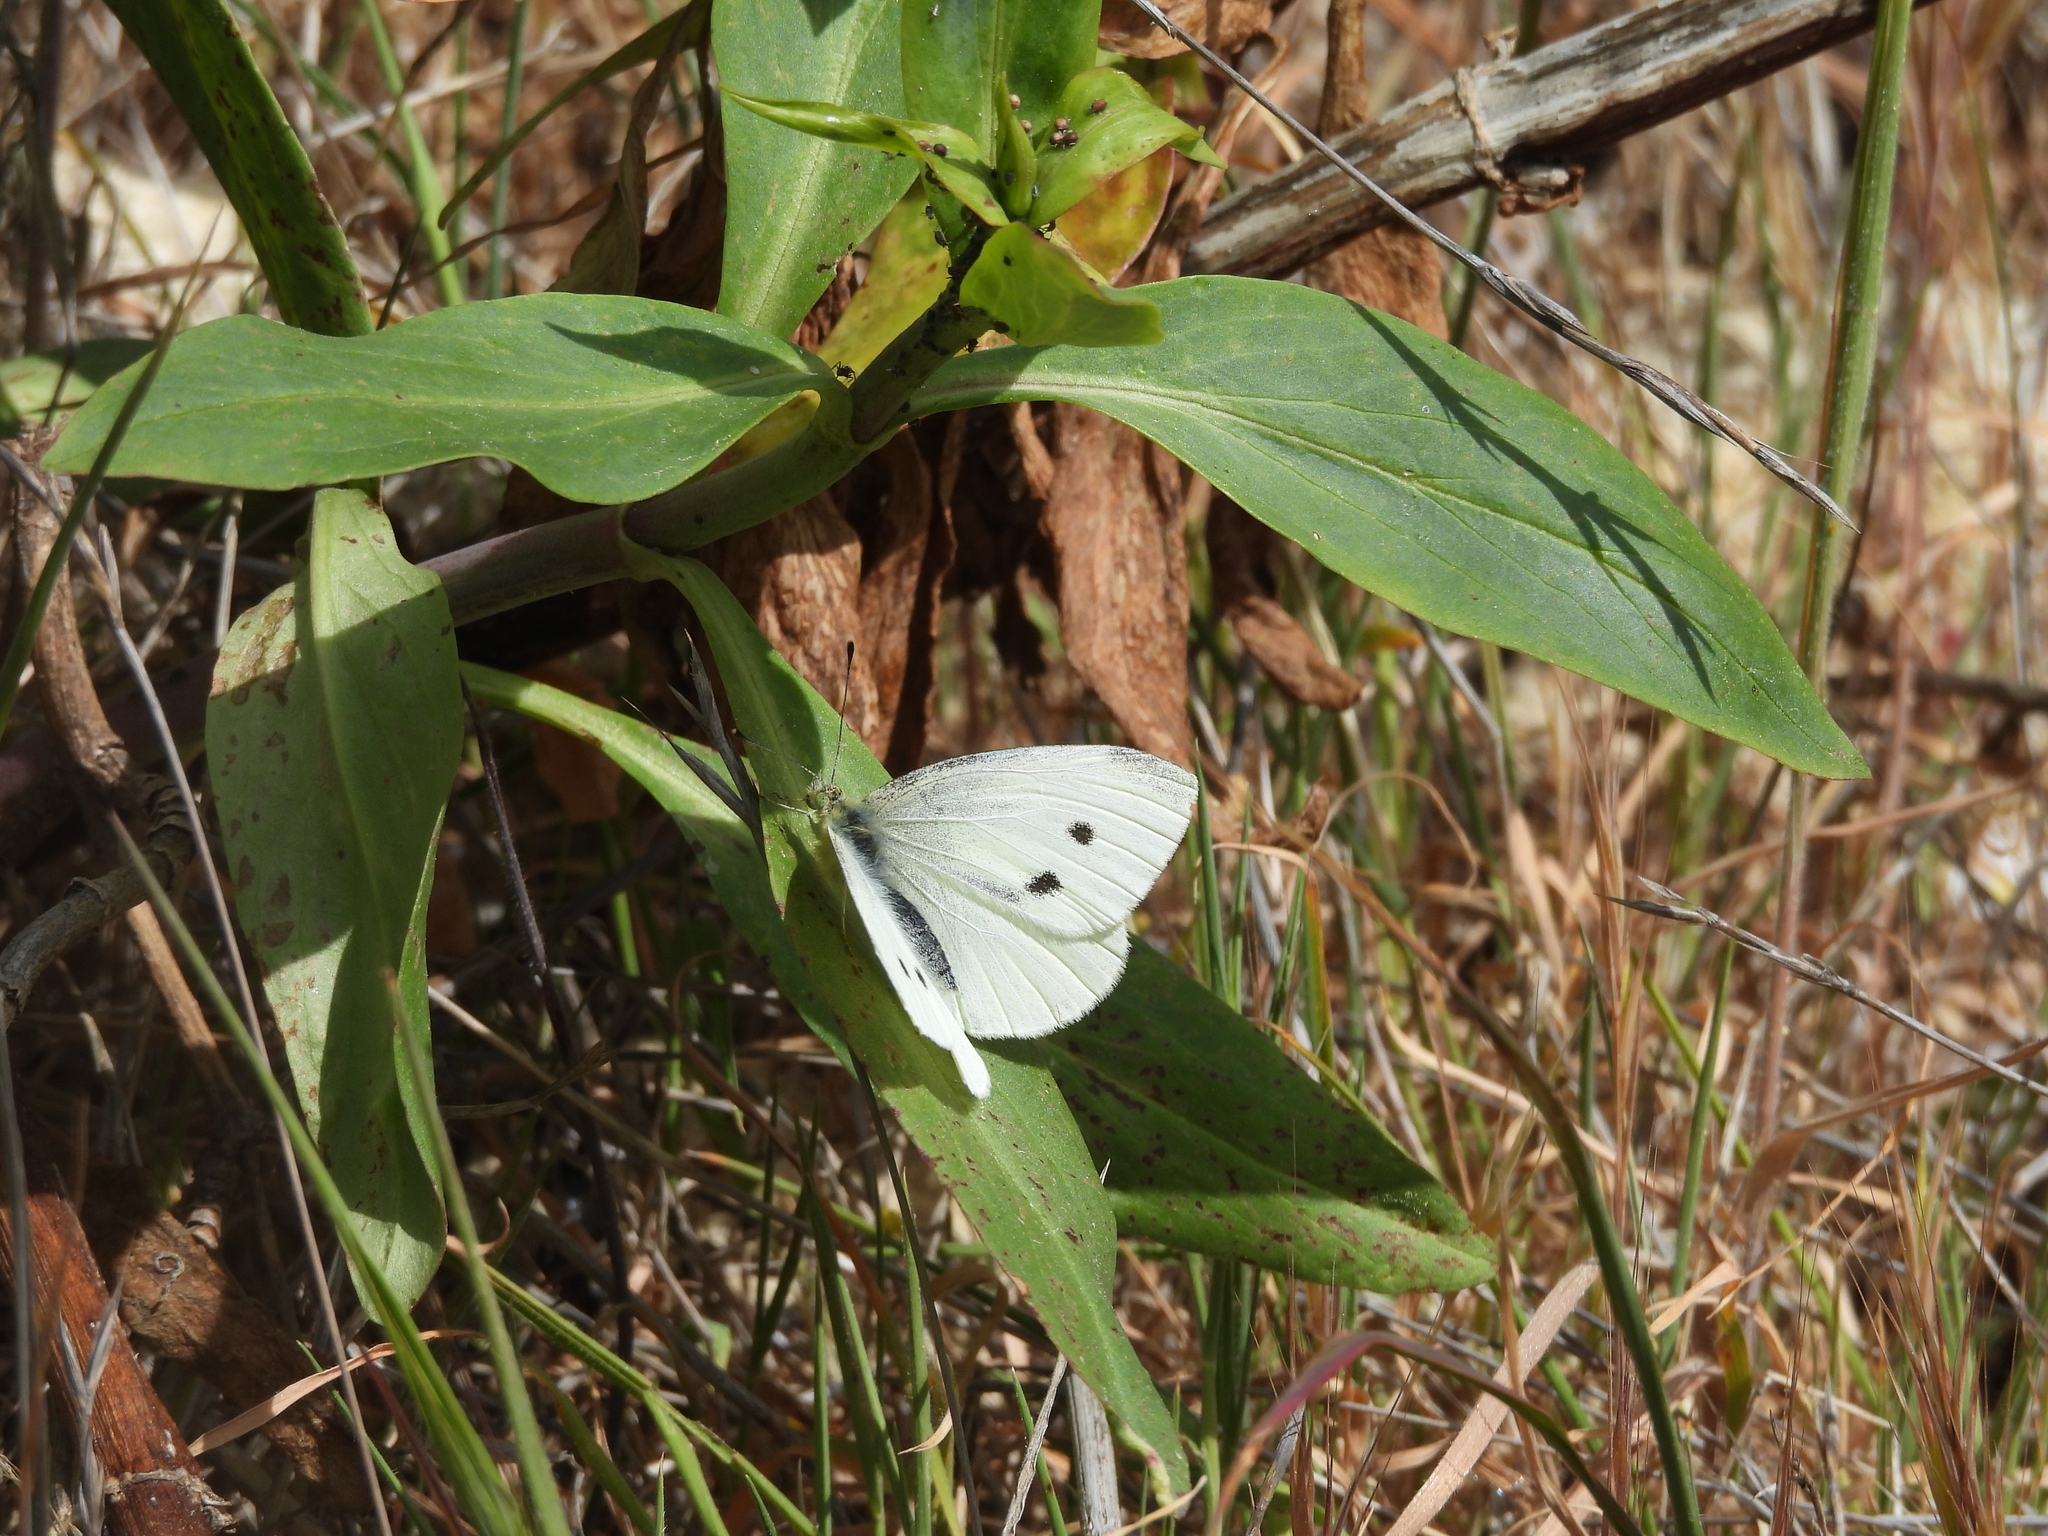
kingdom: Animalia
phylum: Arthropoda
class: Insecta
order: Lepidoptera
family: Pieridae
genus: Pieris
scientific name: Pieris rapae
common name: Small white
